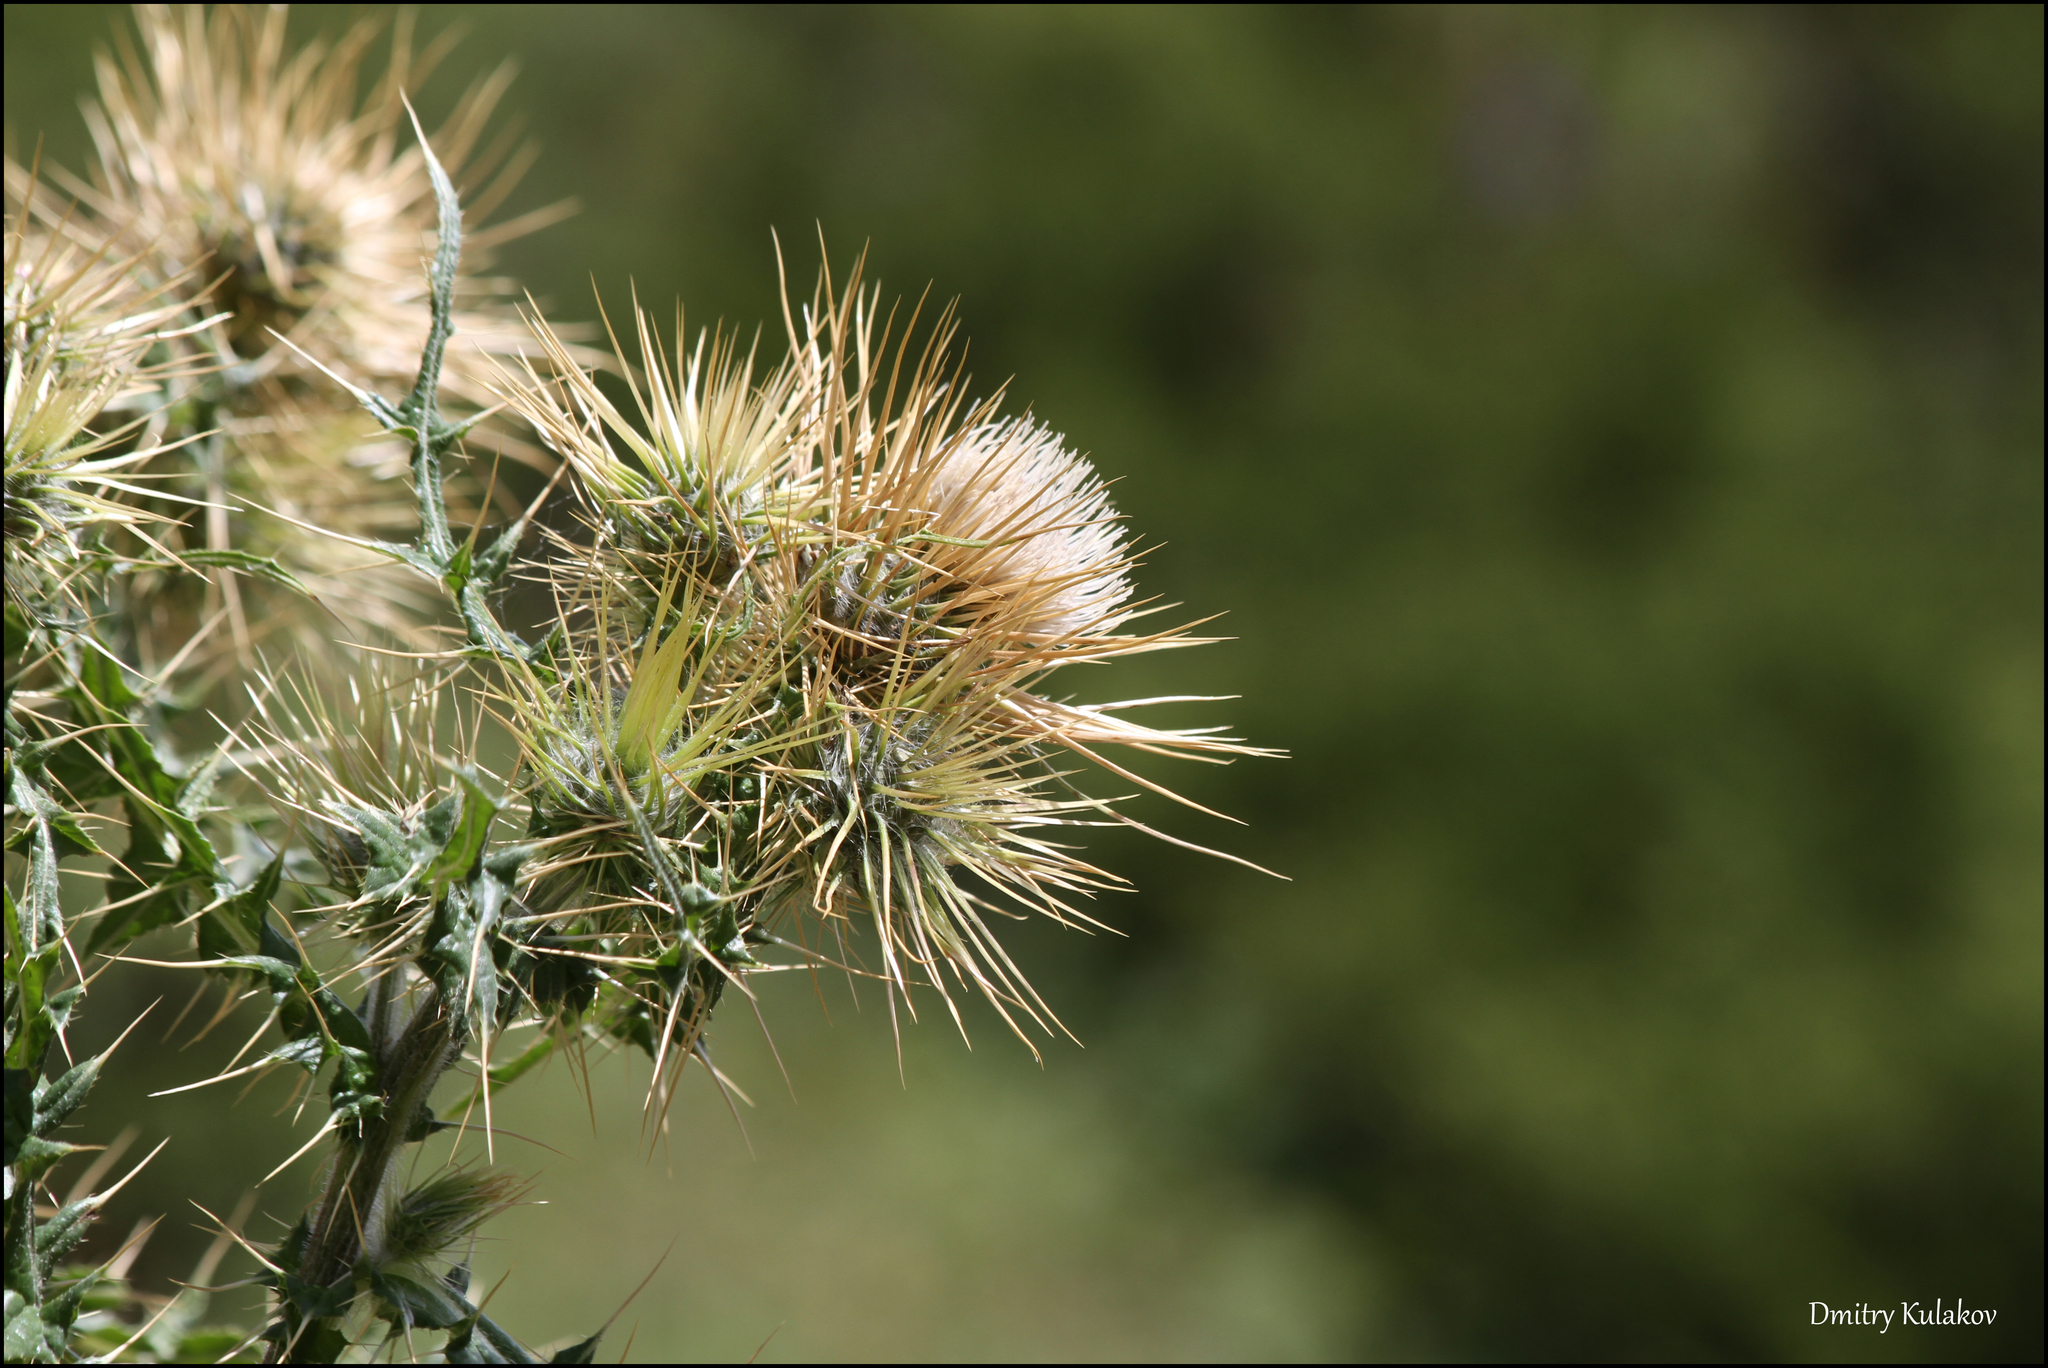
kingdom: Plantae
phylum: Tracheophyta
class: Magnoliopsida
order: Asterales
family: Asteraceae
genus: Cirsium
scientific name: Cirsium semenowii
